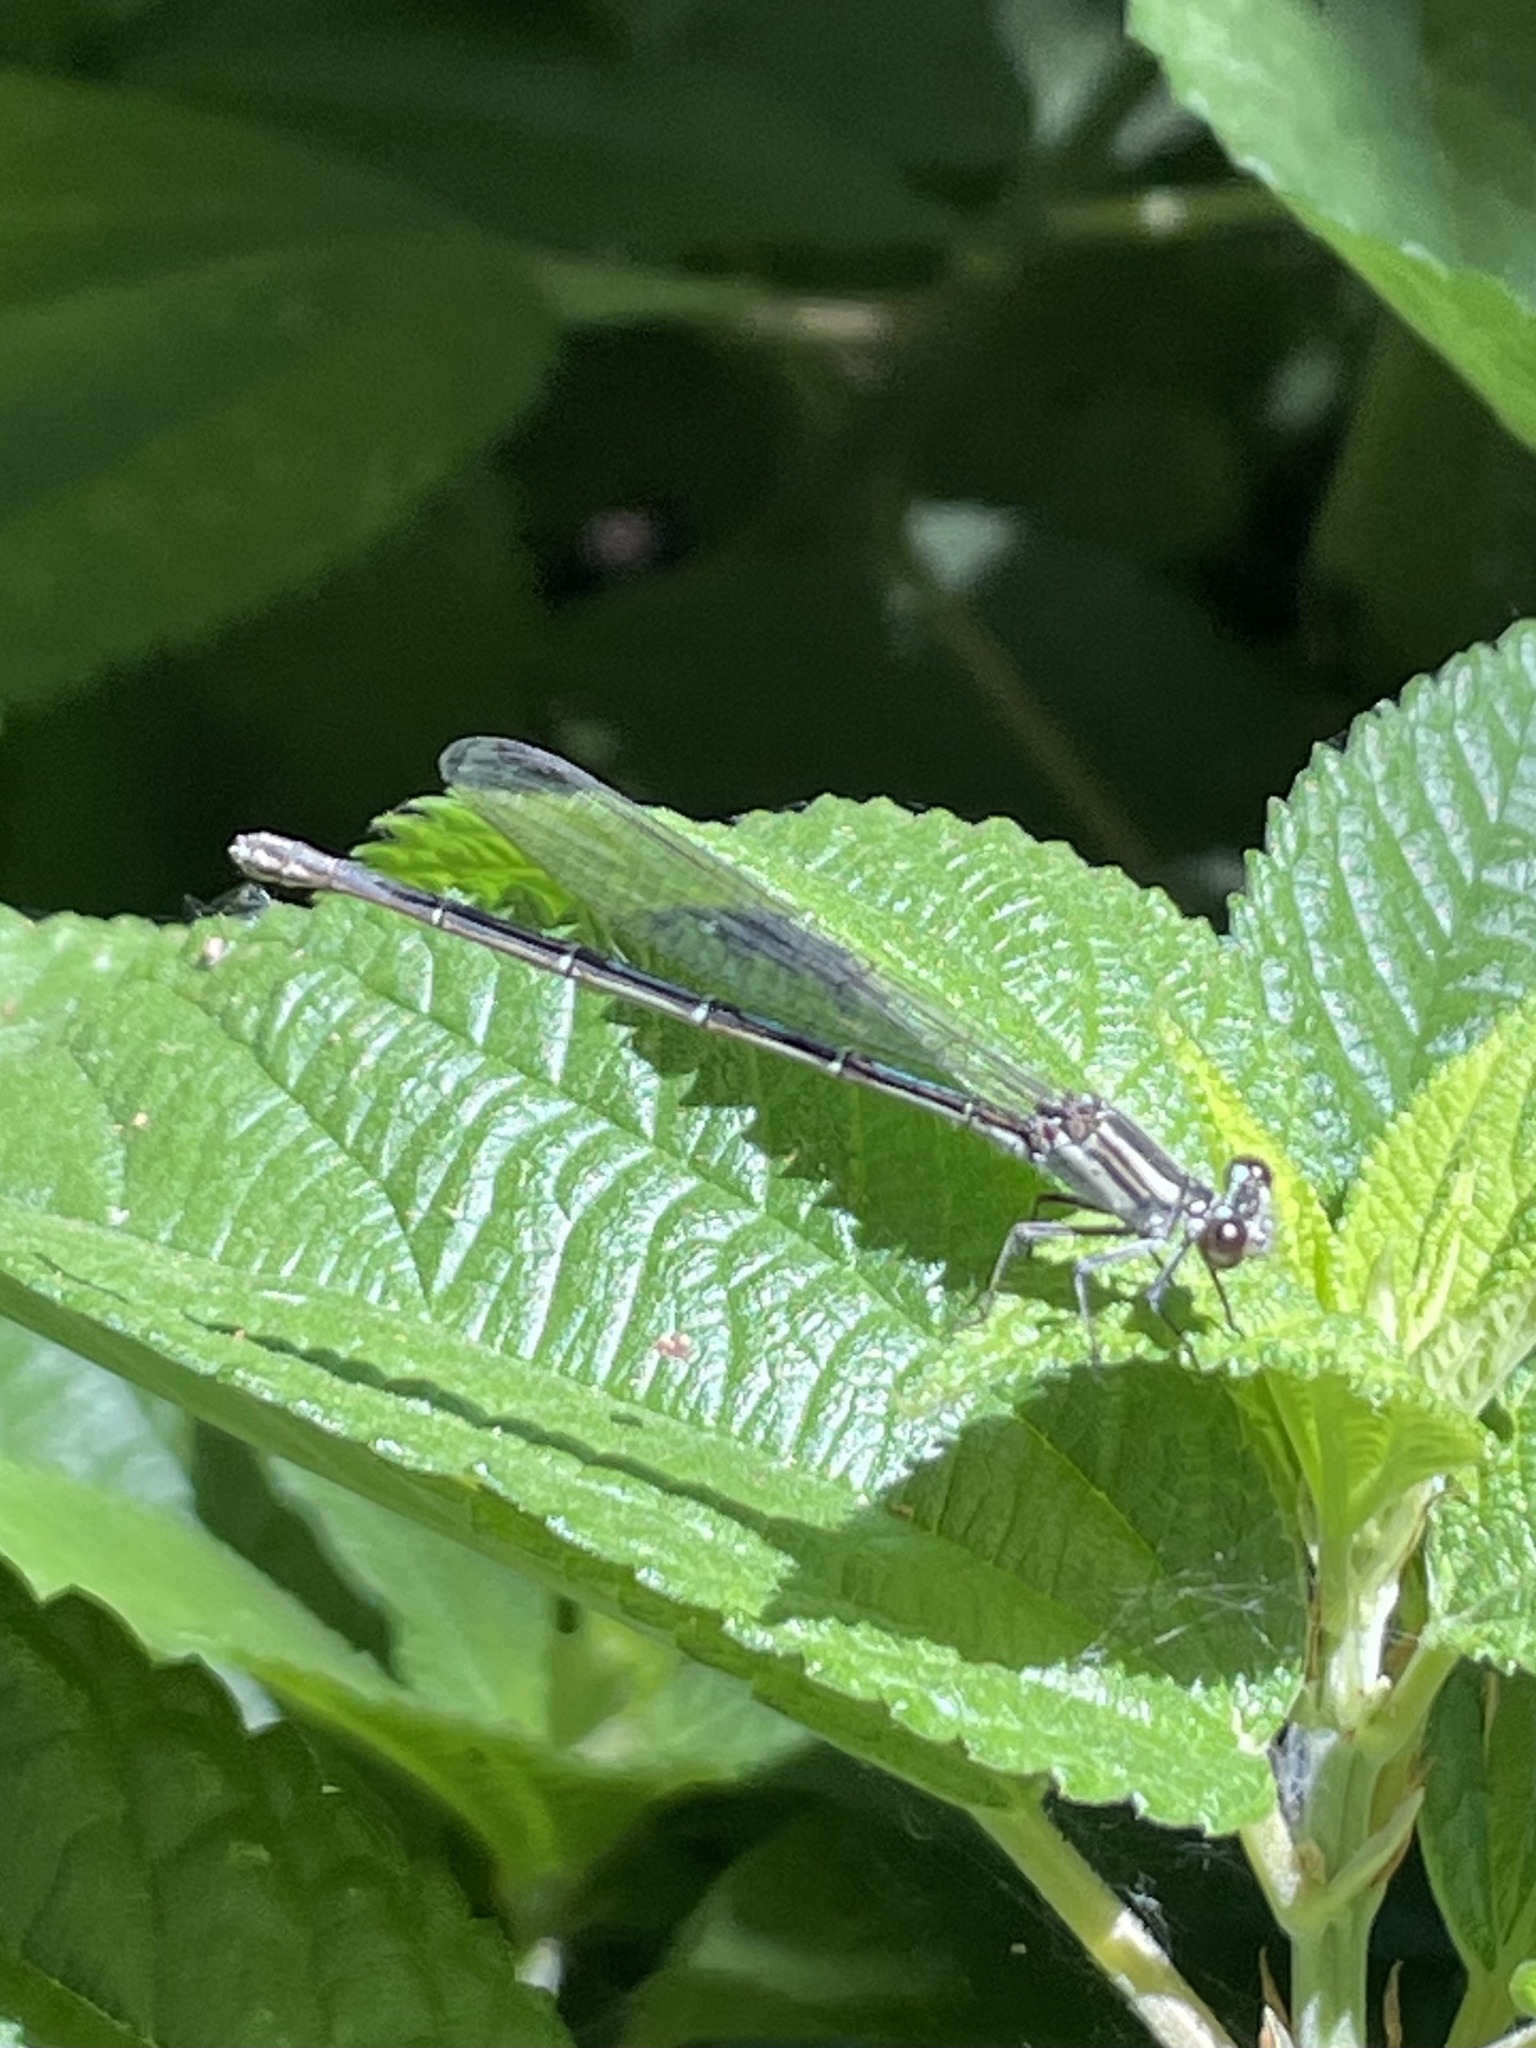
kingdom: Animalia
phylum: Arthropoda
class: Insecta
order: Odonata
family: Coenagrionidae
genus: Argia
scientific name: Argia translata
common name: Dusky dancer
